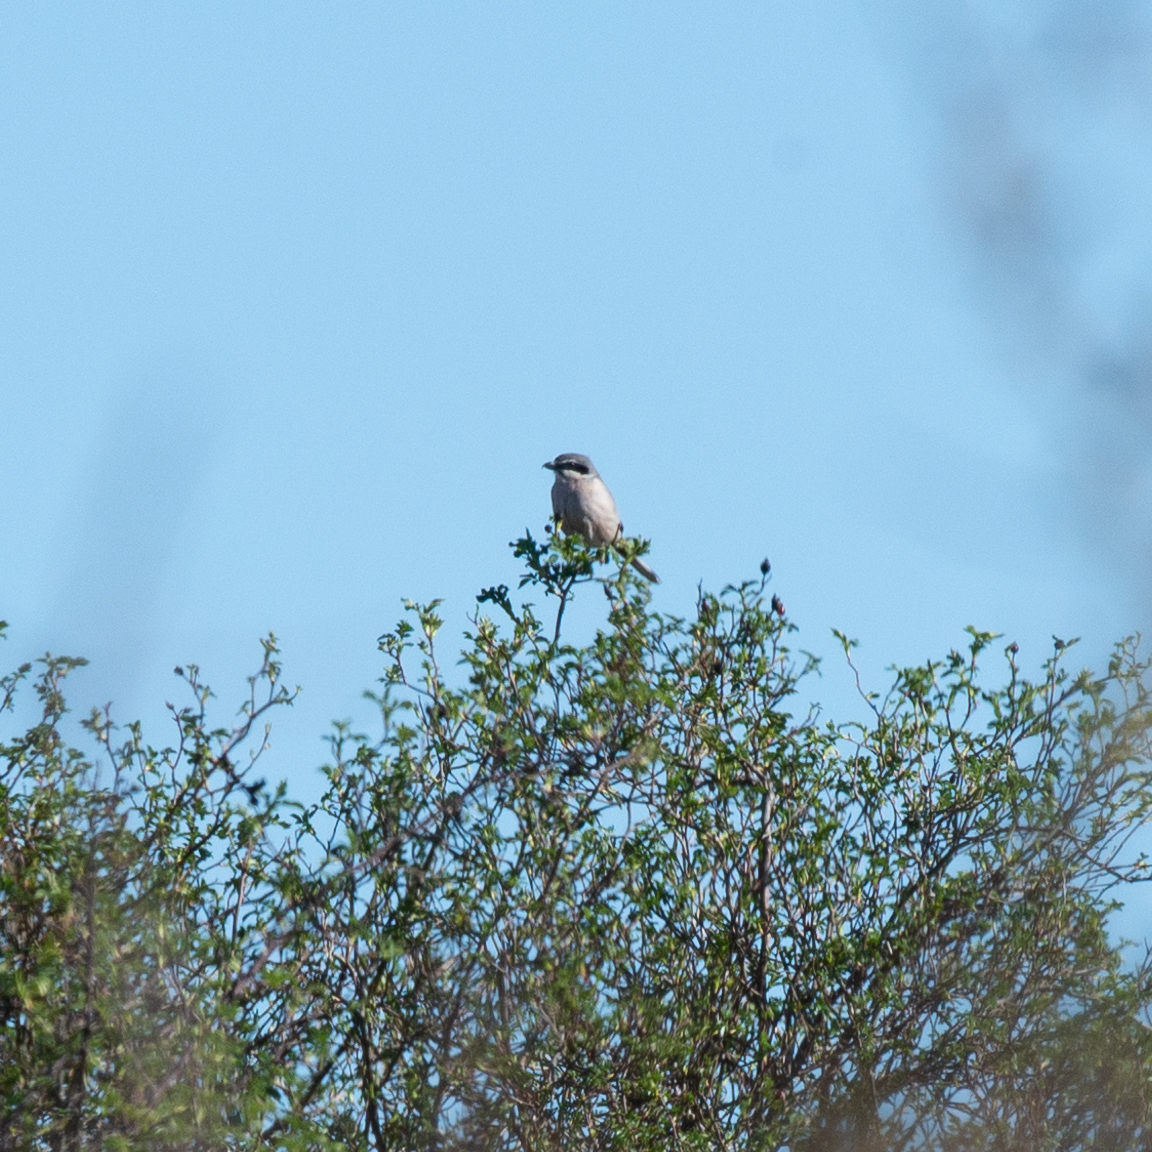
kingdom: Animalia
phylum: Chordata
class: Aves
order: Passeriformes
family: Laniidae
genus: Lanius
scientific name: Lanius meridionalis
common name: Iberian grey shrike
